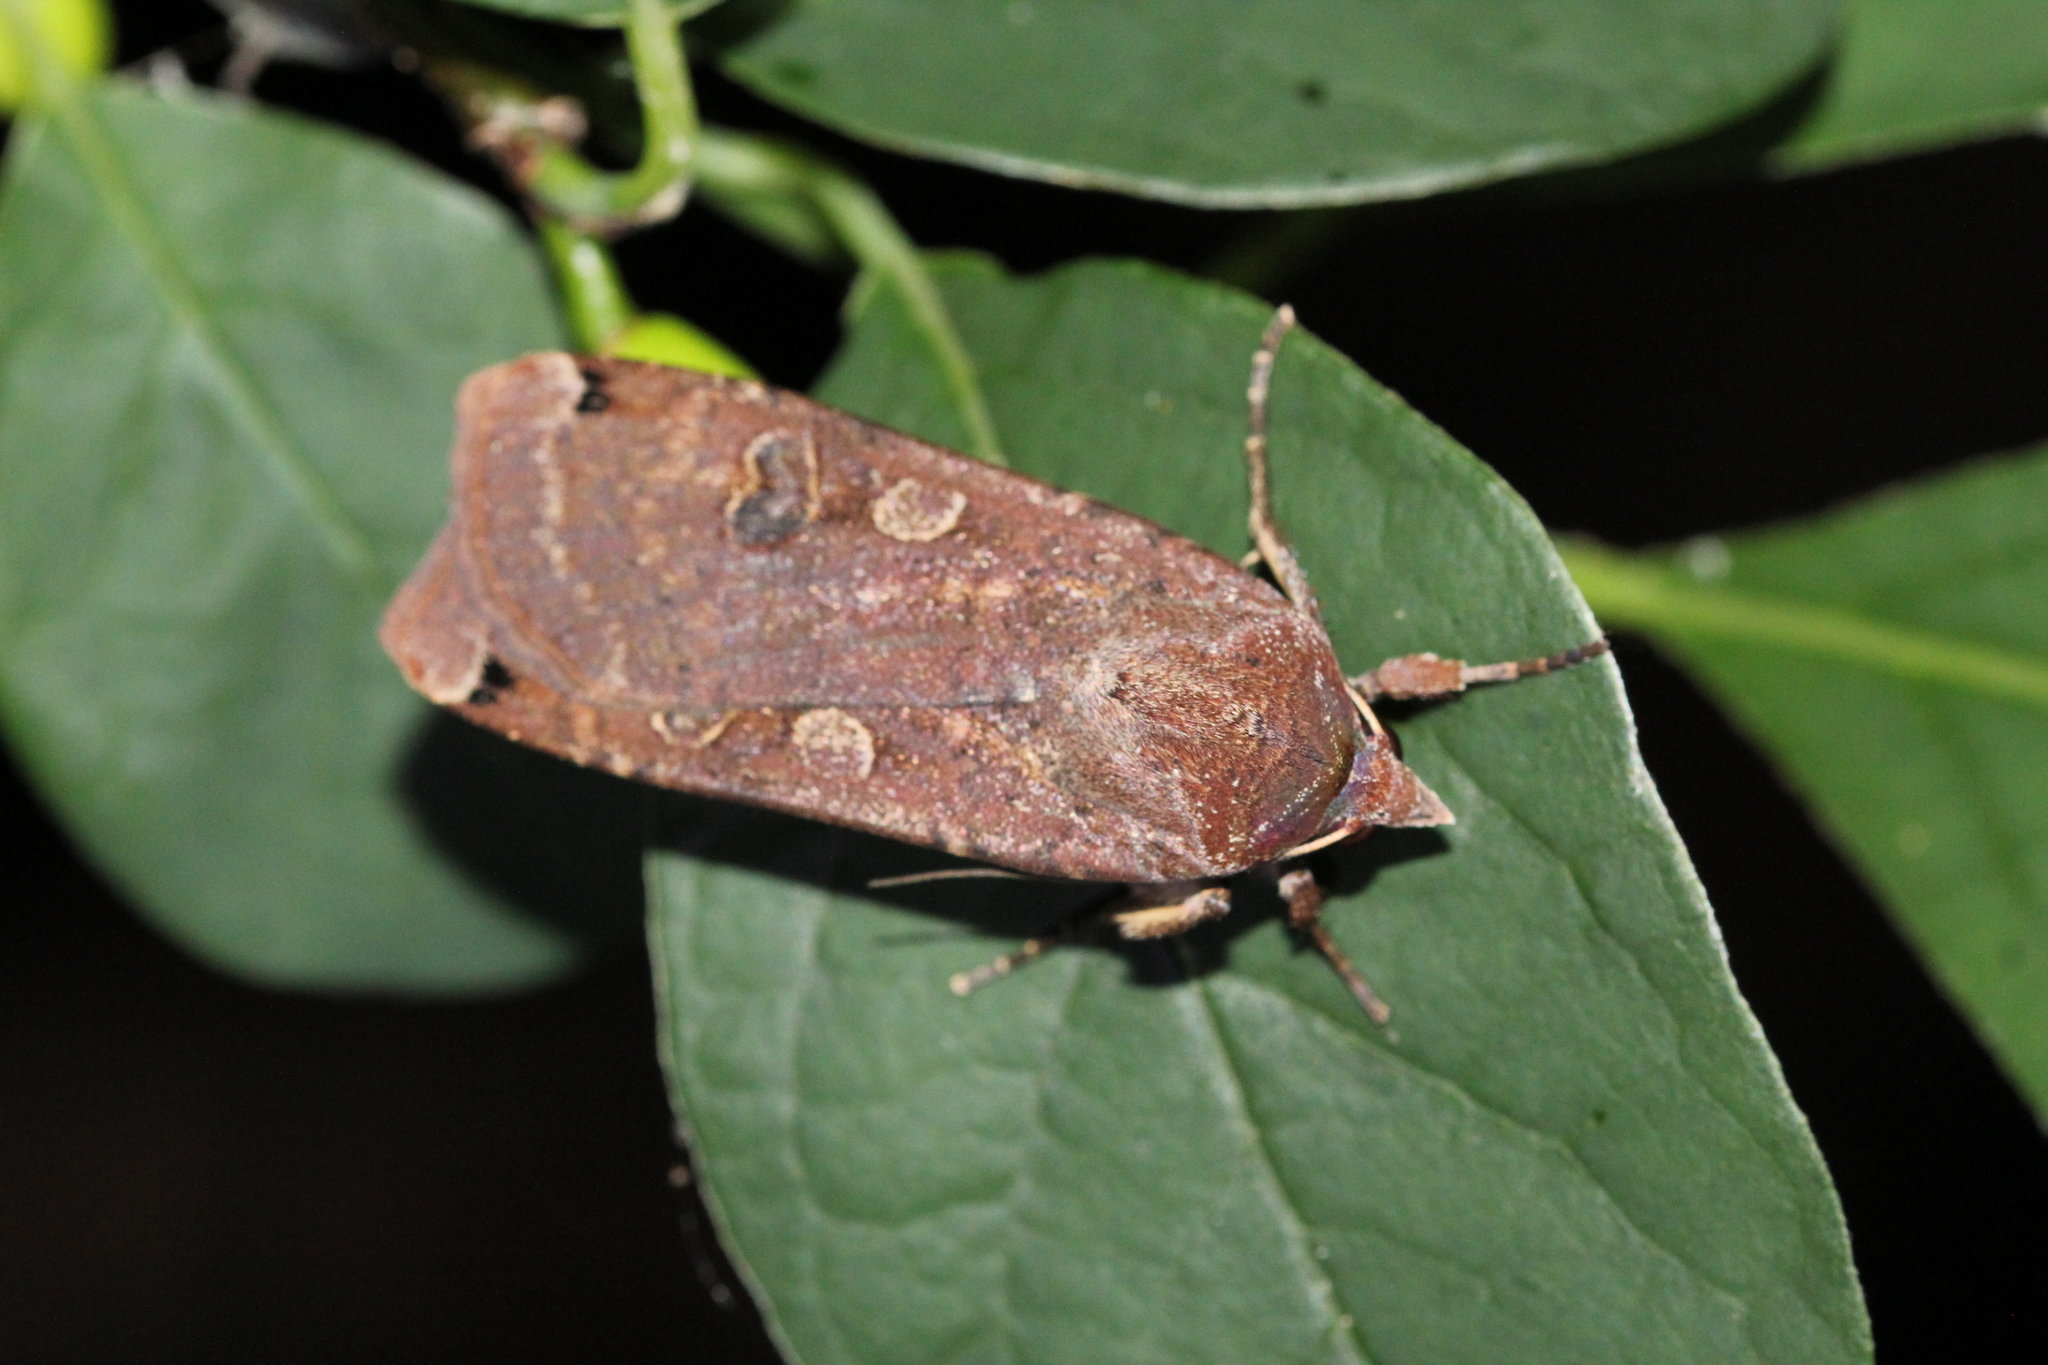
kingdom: Animalia
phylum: Arthropoda
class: Insecta
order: Lepidoptera
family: Noctuidae
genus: Noctua
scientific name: Noctua pronuba
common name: Large yellow underwing
